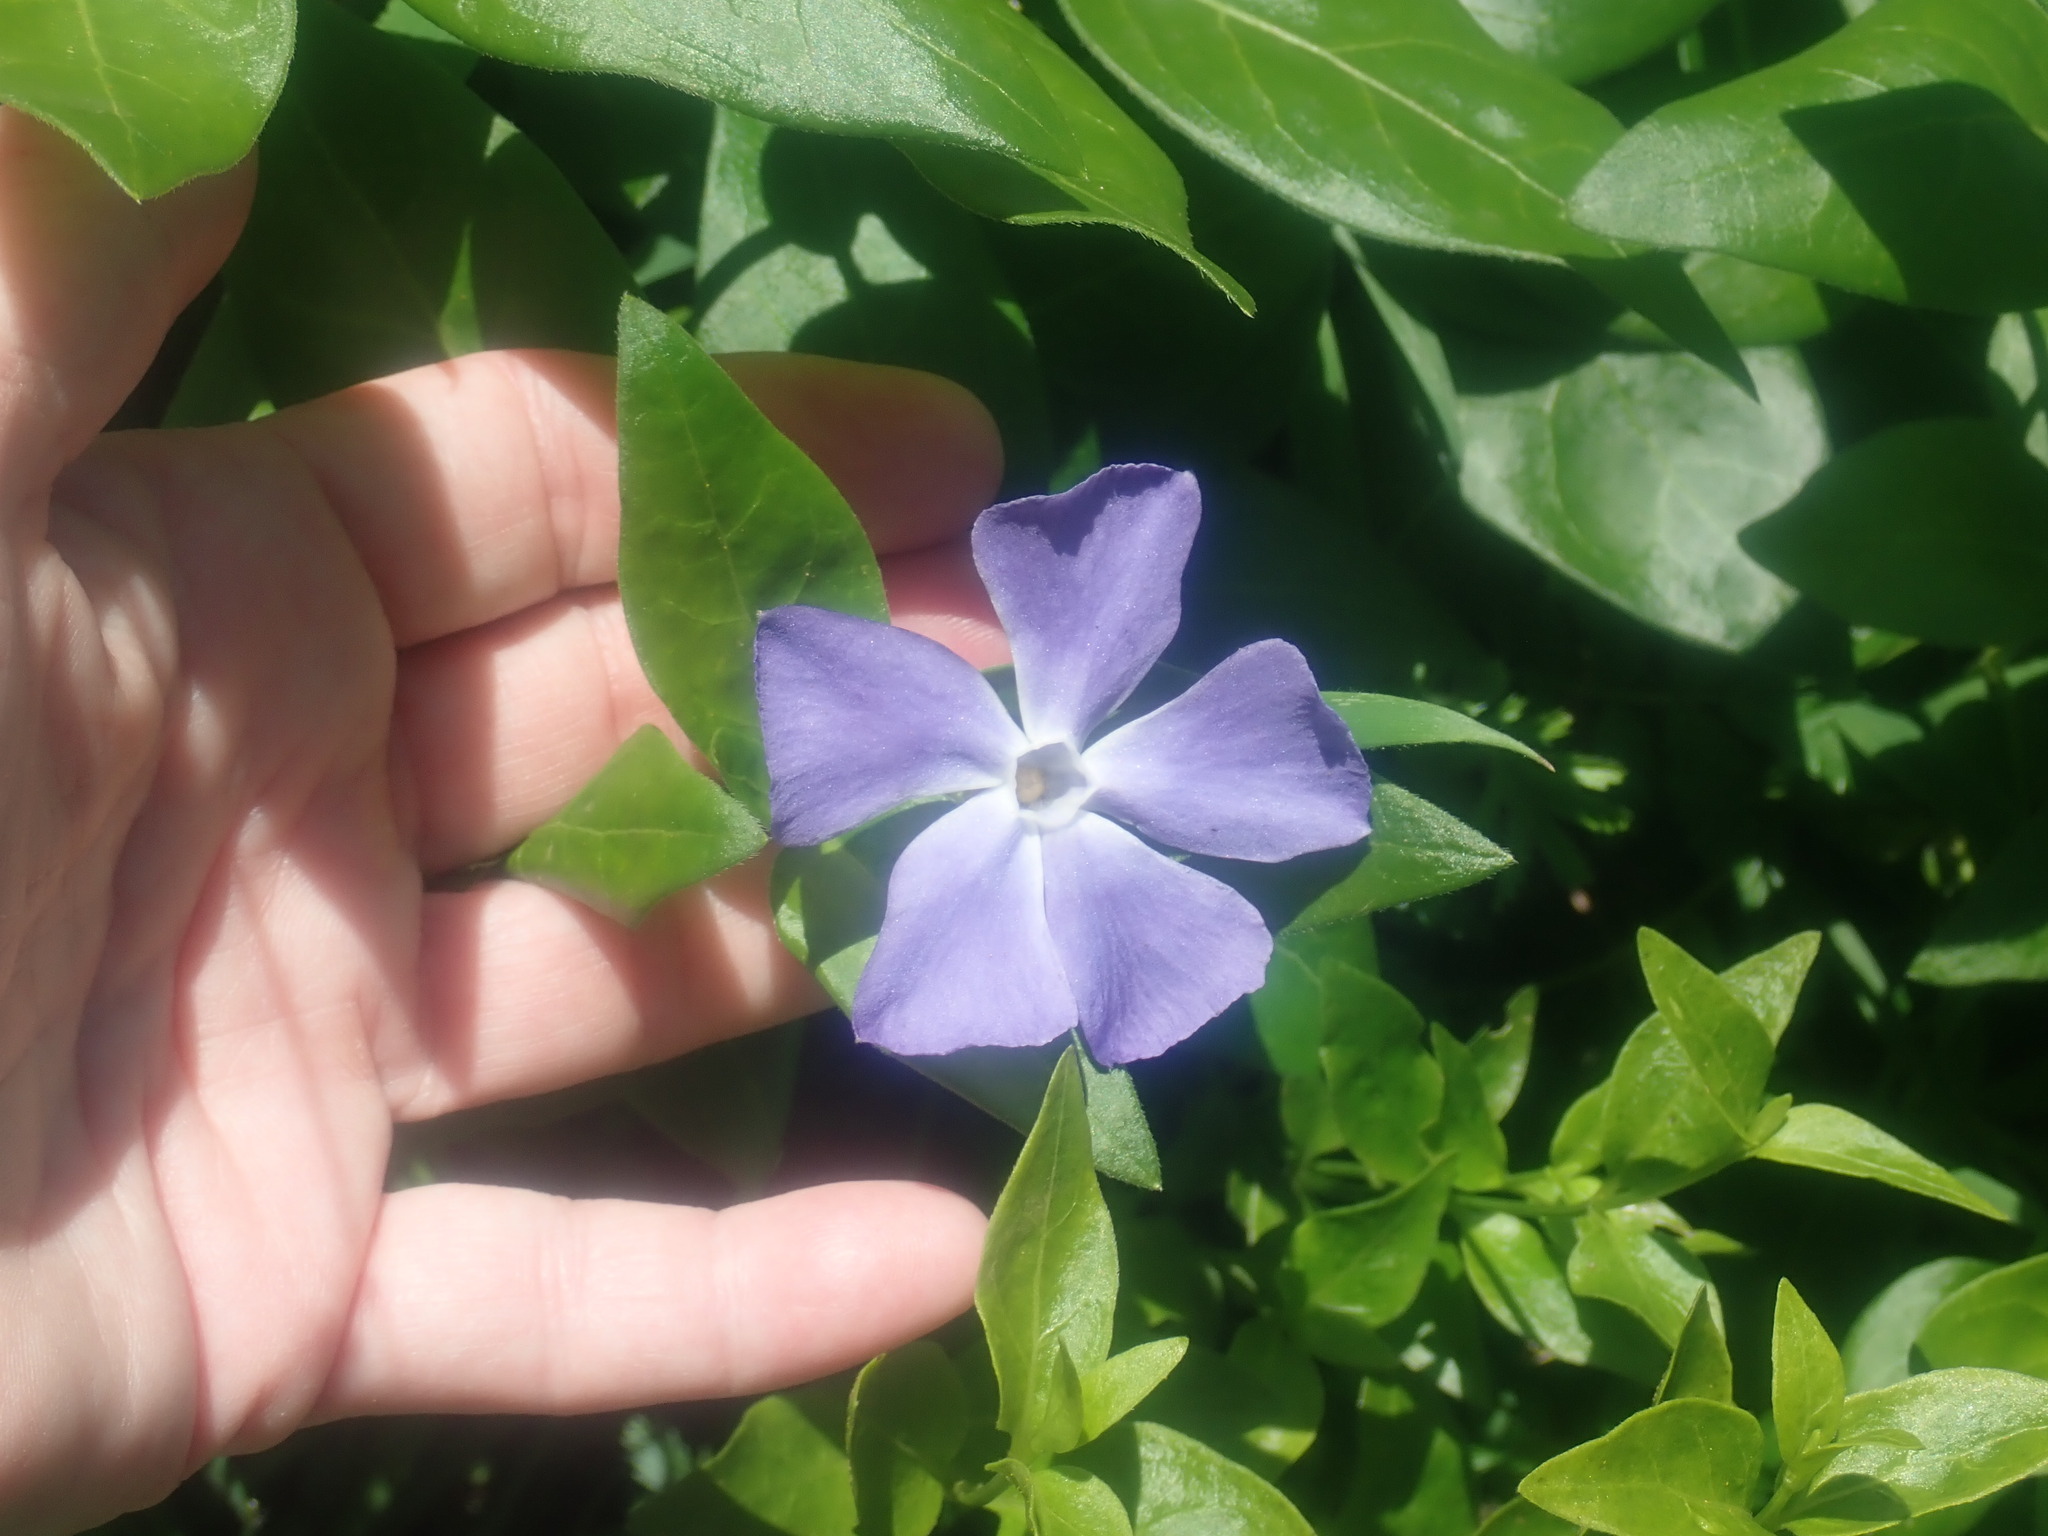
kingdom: Plantae
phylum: Tracheophyta
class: Magnoliopsida
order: Gentianales
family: Apocynaceae
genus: Vinca
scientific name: Vinca major
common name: Greater periwinkle
